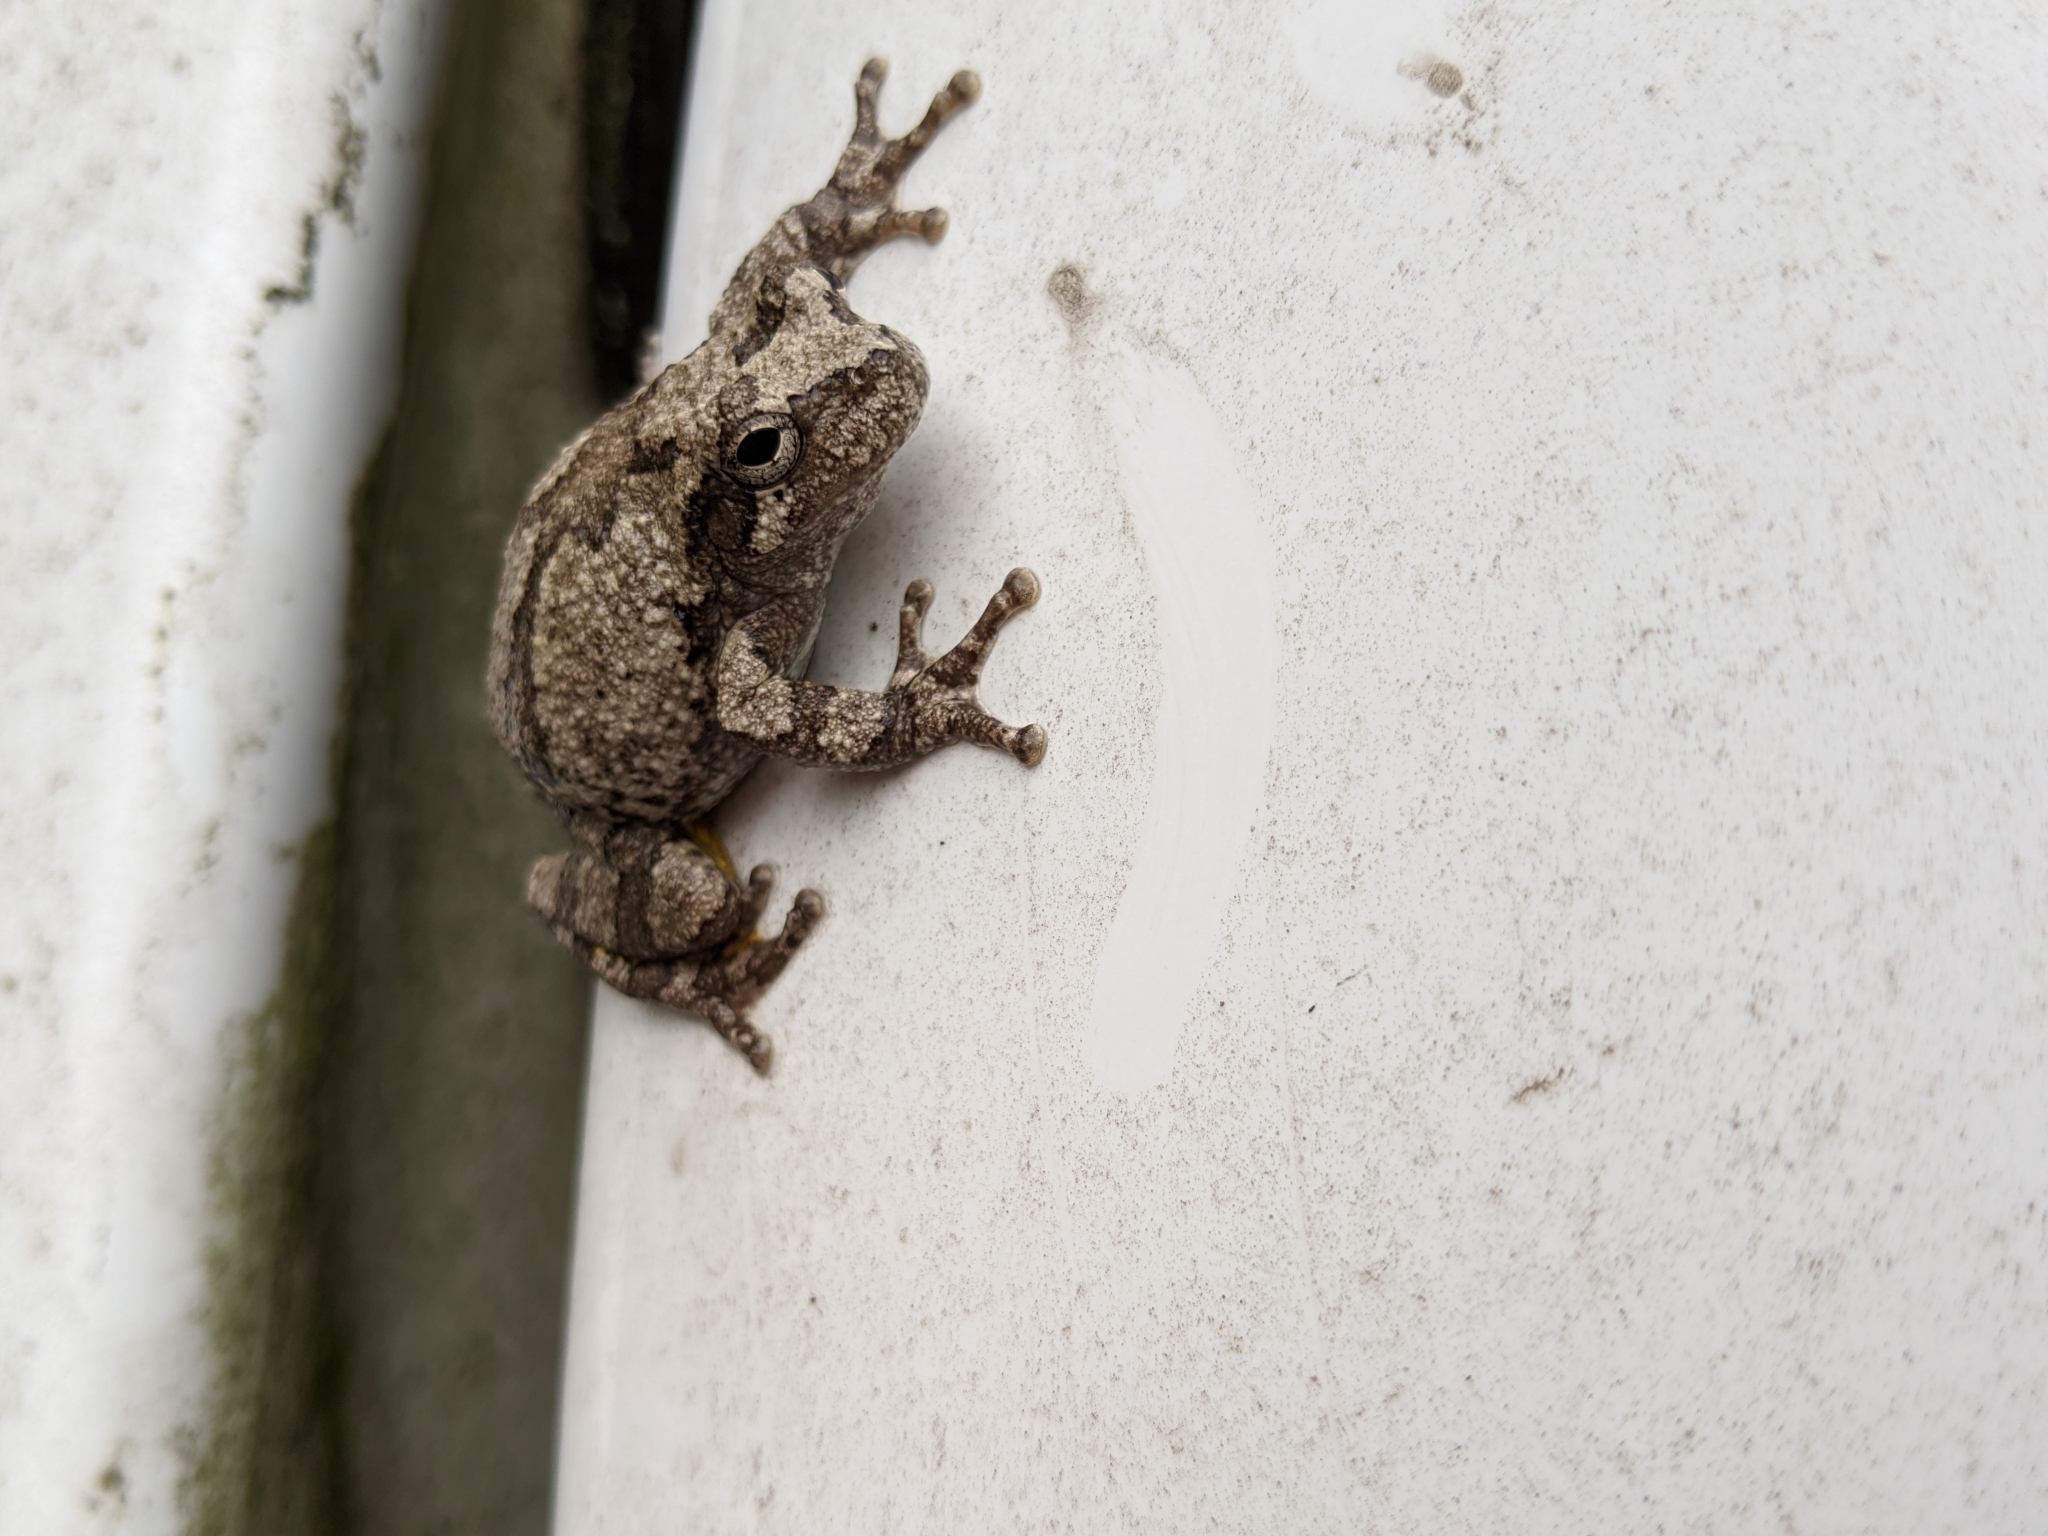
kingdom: Animalia
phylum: Chordata
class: Amphibia
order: Anura
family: Hylidae
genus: Hyla
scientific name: Hyla
